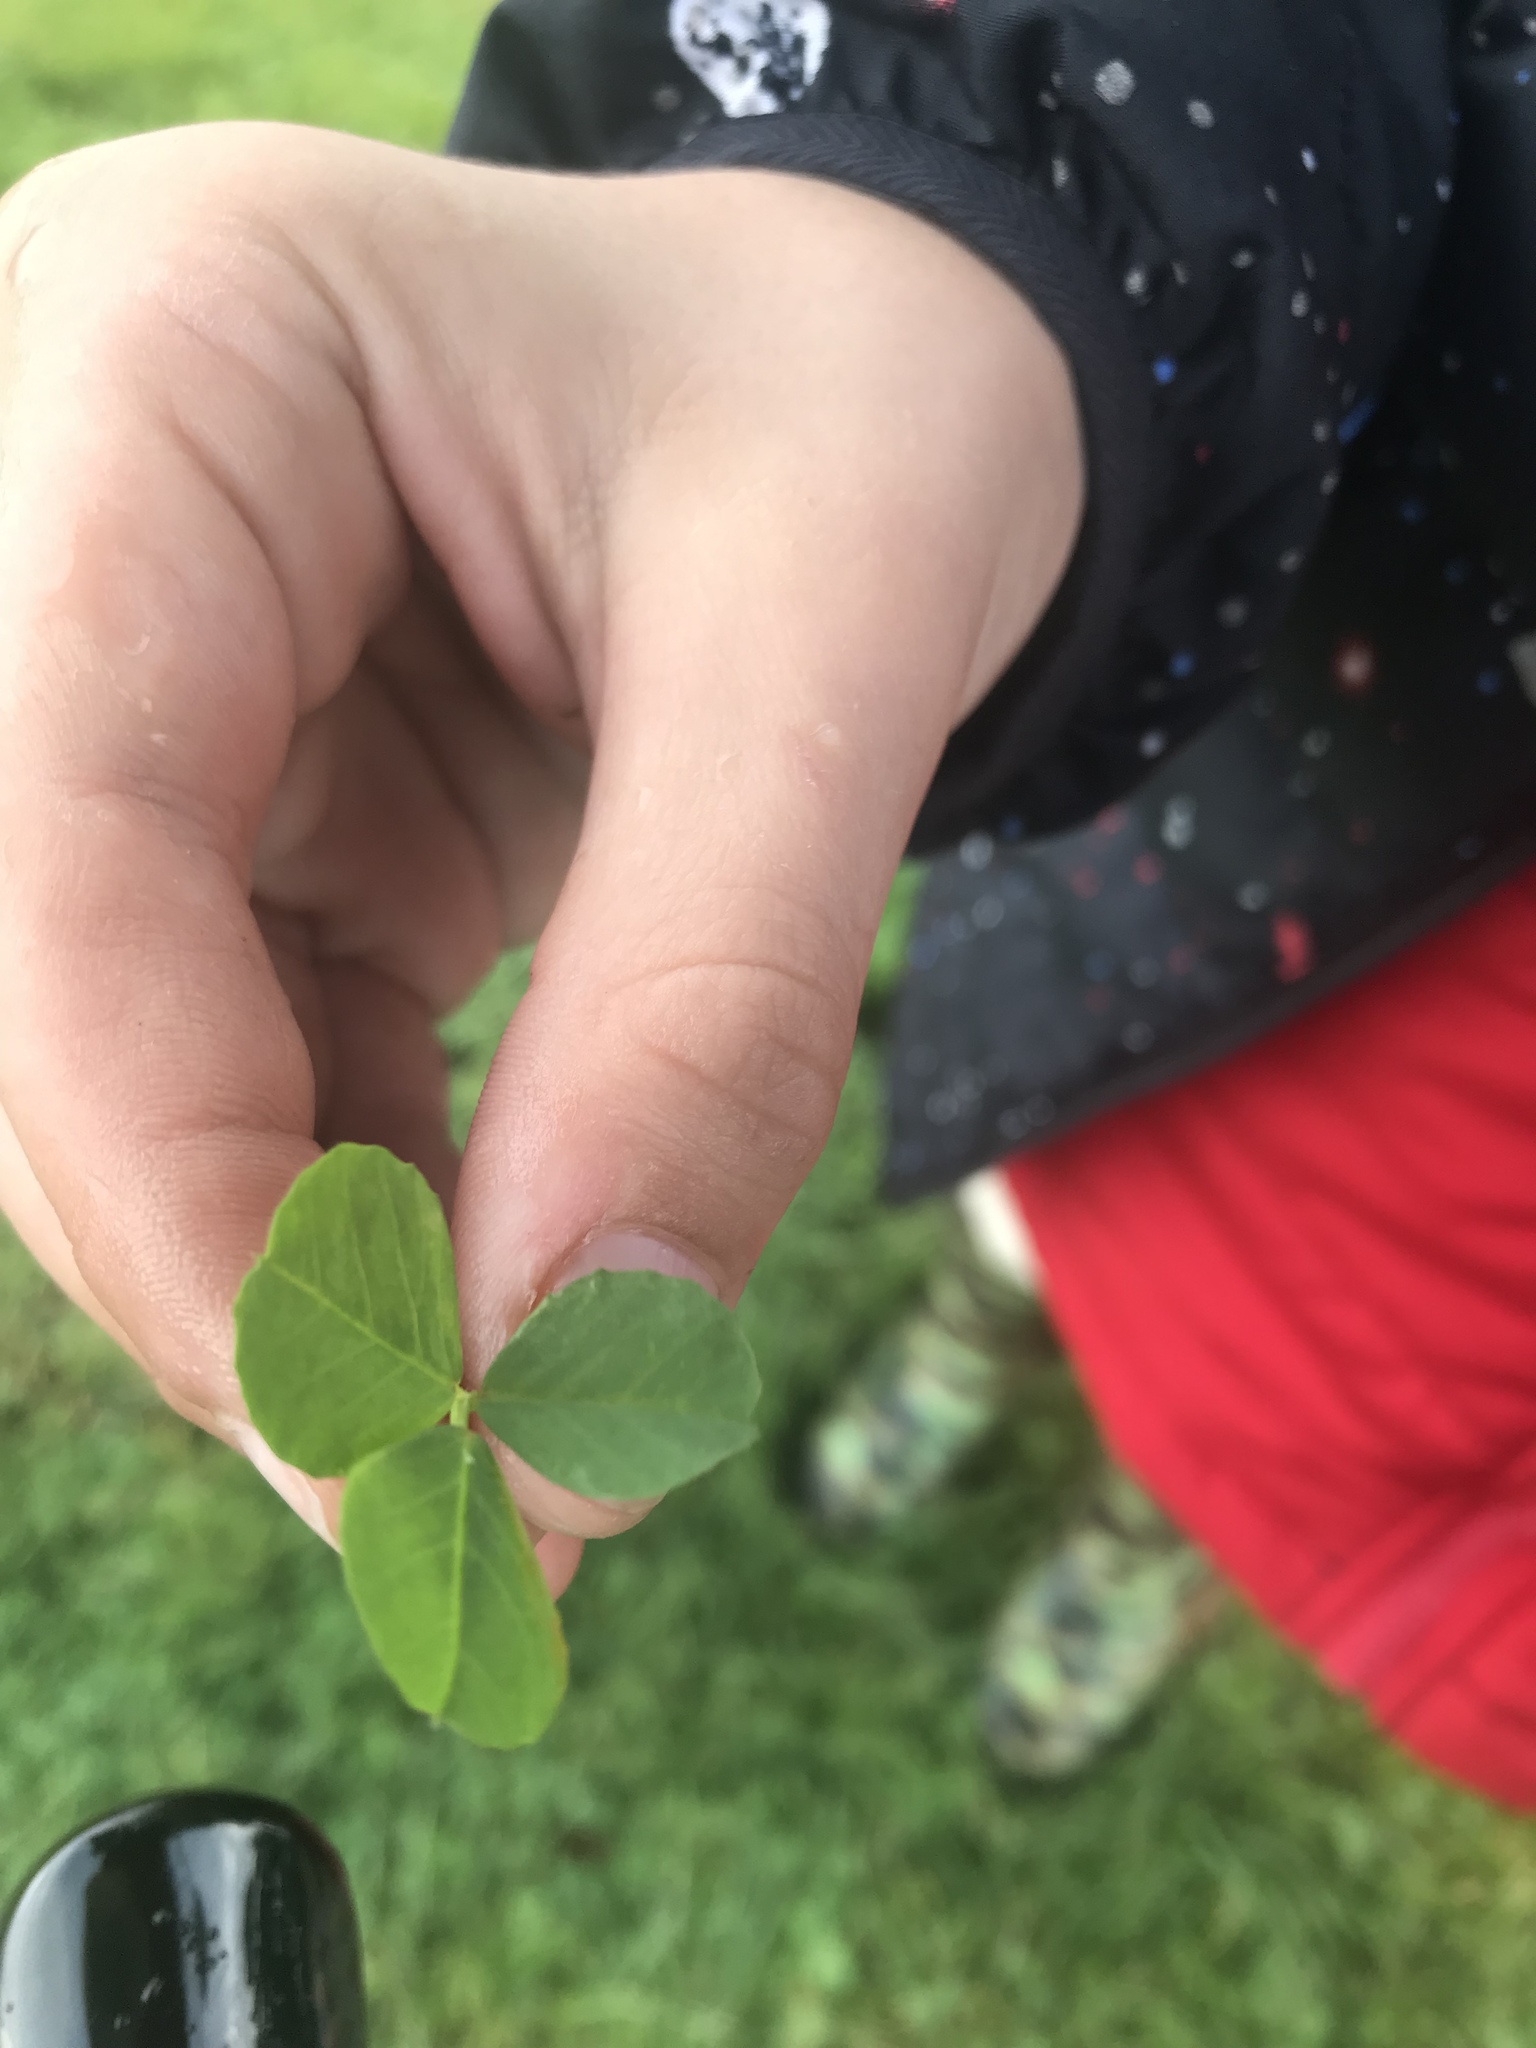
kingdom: Plantae
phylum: Tracheophyta
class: Magnoliopsida
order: Fabales
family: Fabaceae
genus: Trifolium
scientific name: Trifolium repens
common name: White clover
